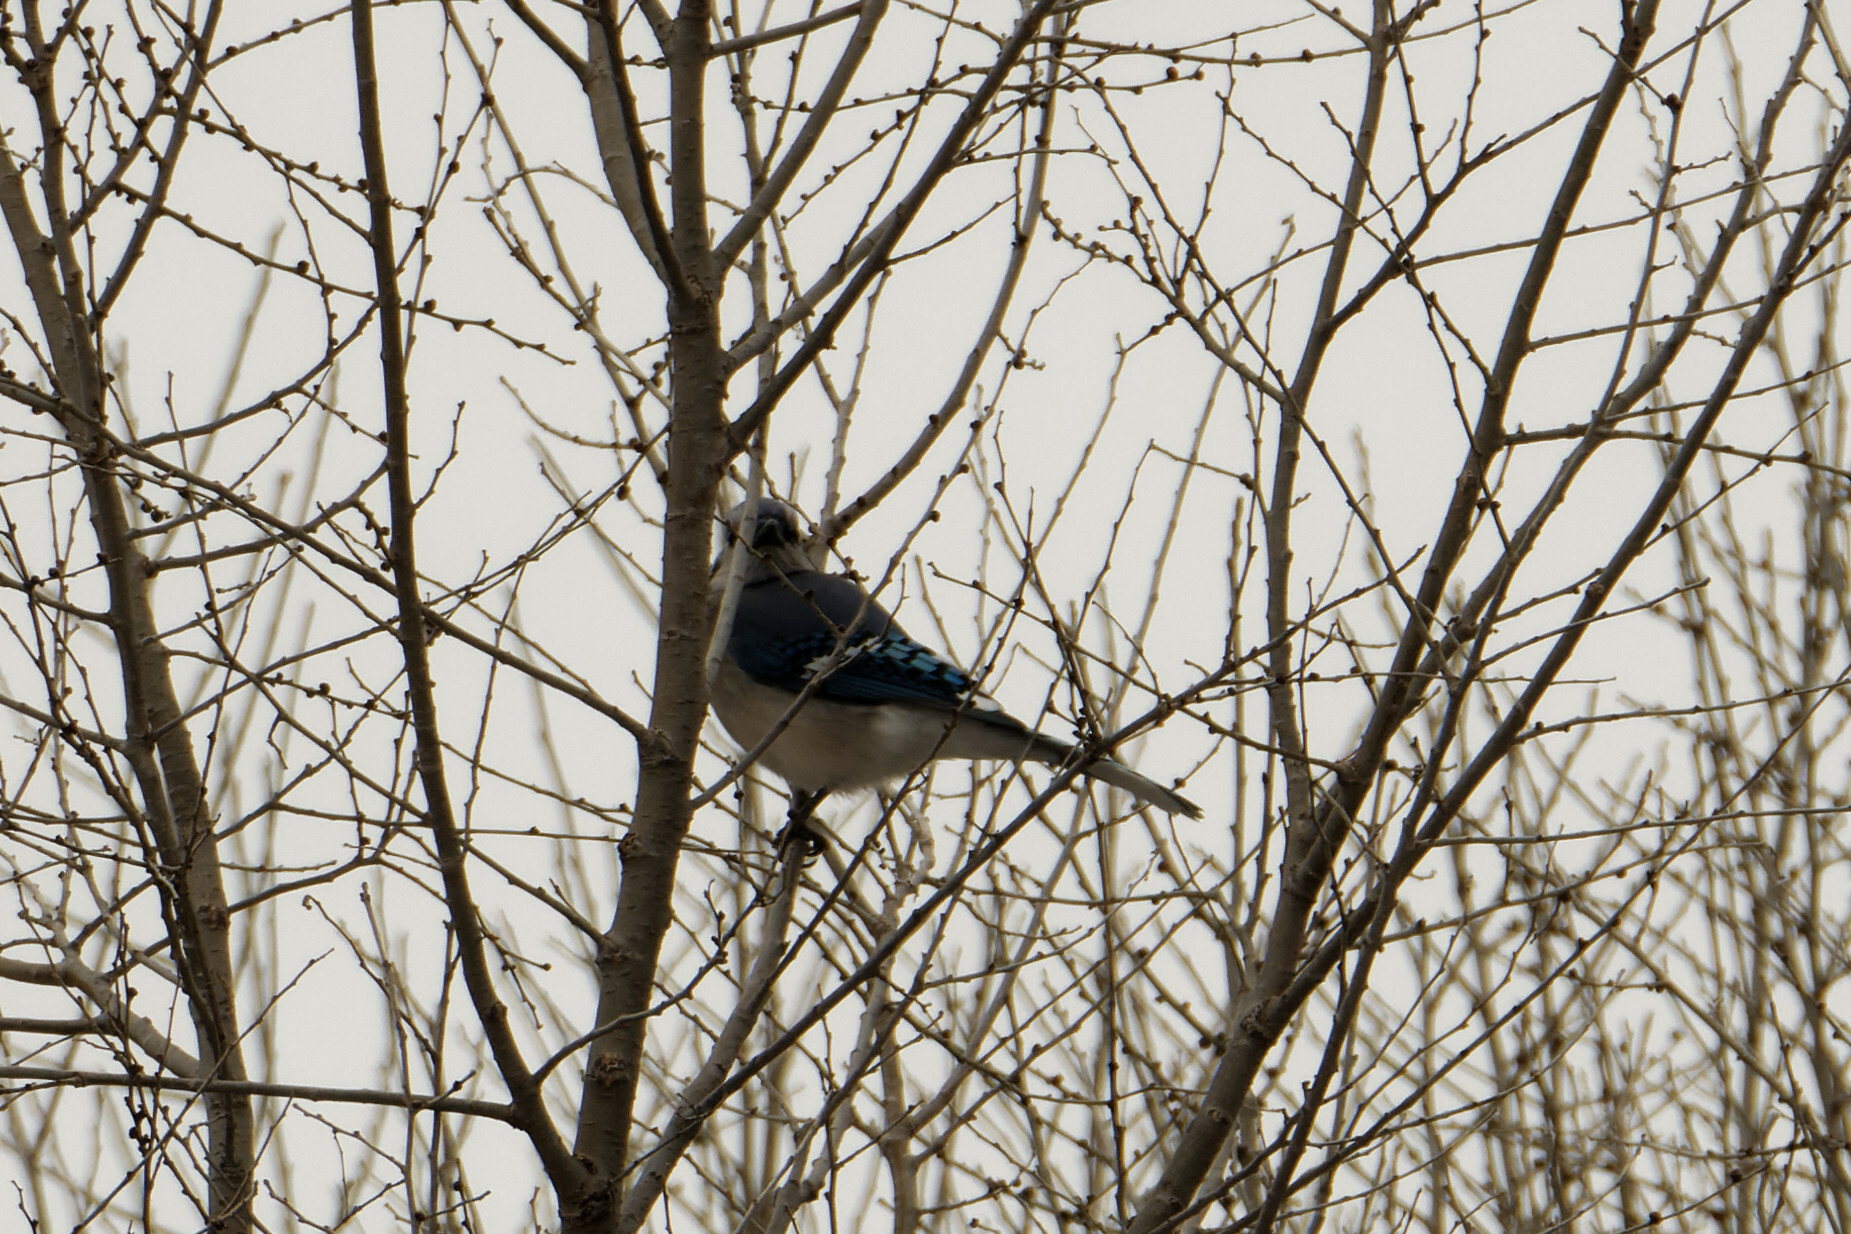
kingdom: Animalia
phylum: Chordata
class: Aves
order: Passeriformes
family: Corvidae
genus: Cyanocitta
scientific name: Cyanocitta cristata
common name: Blue jay
